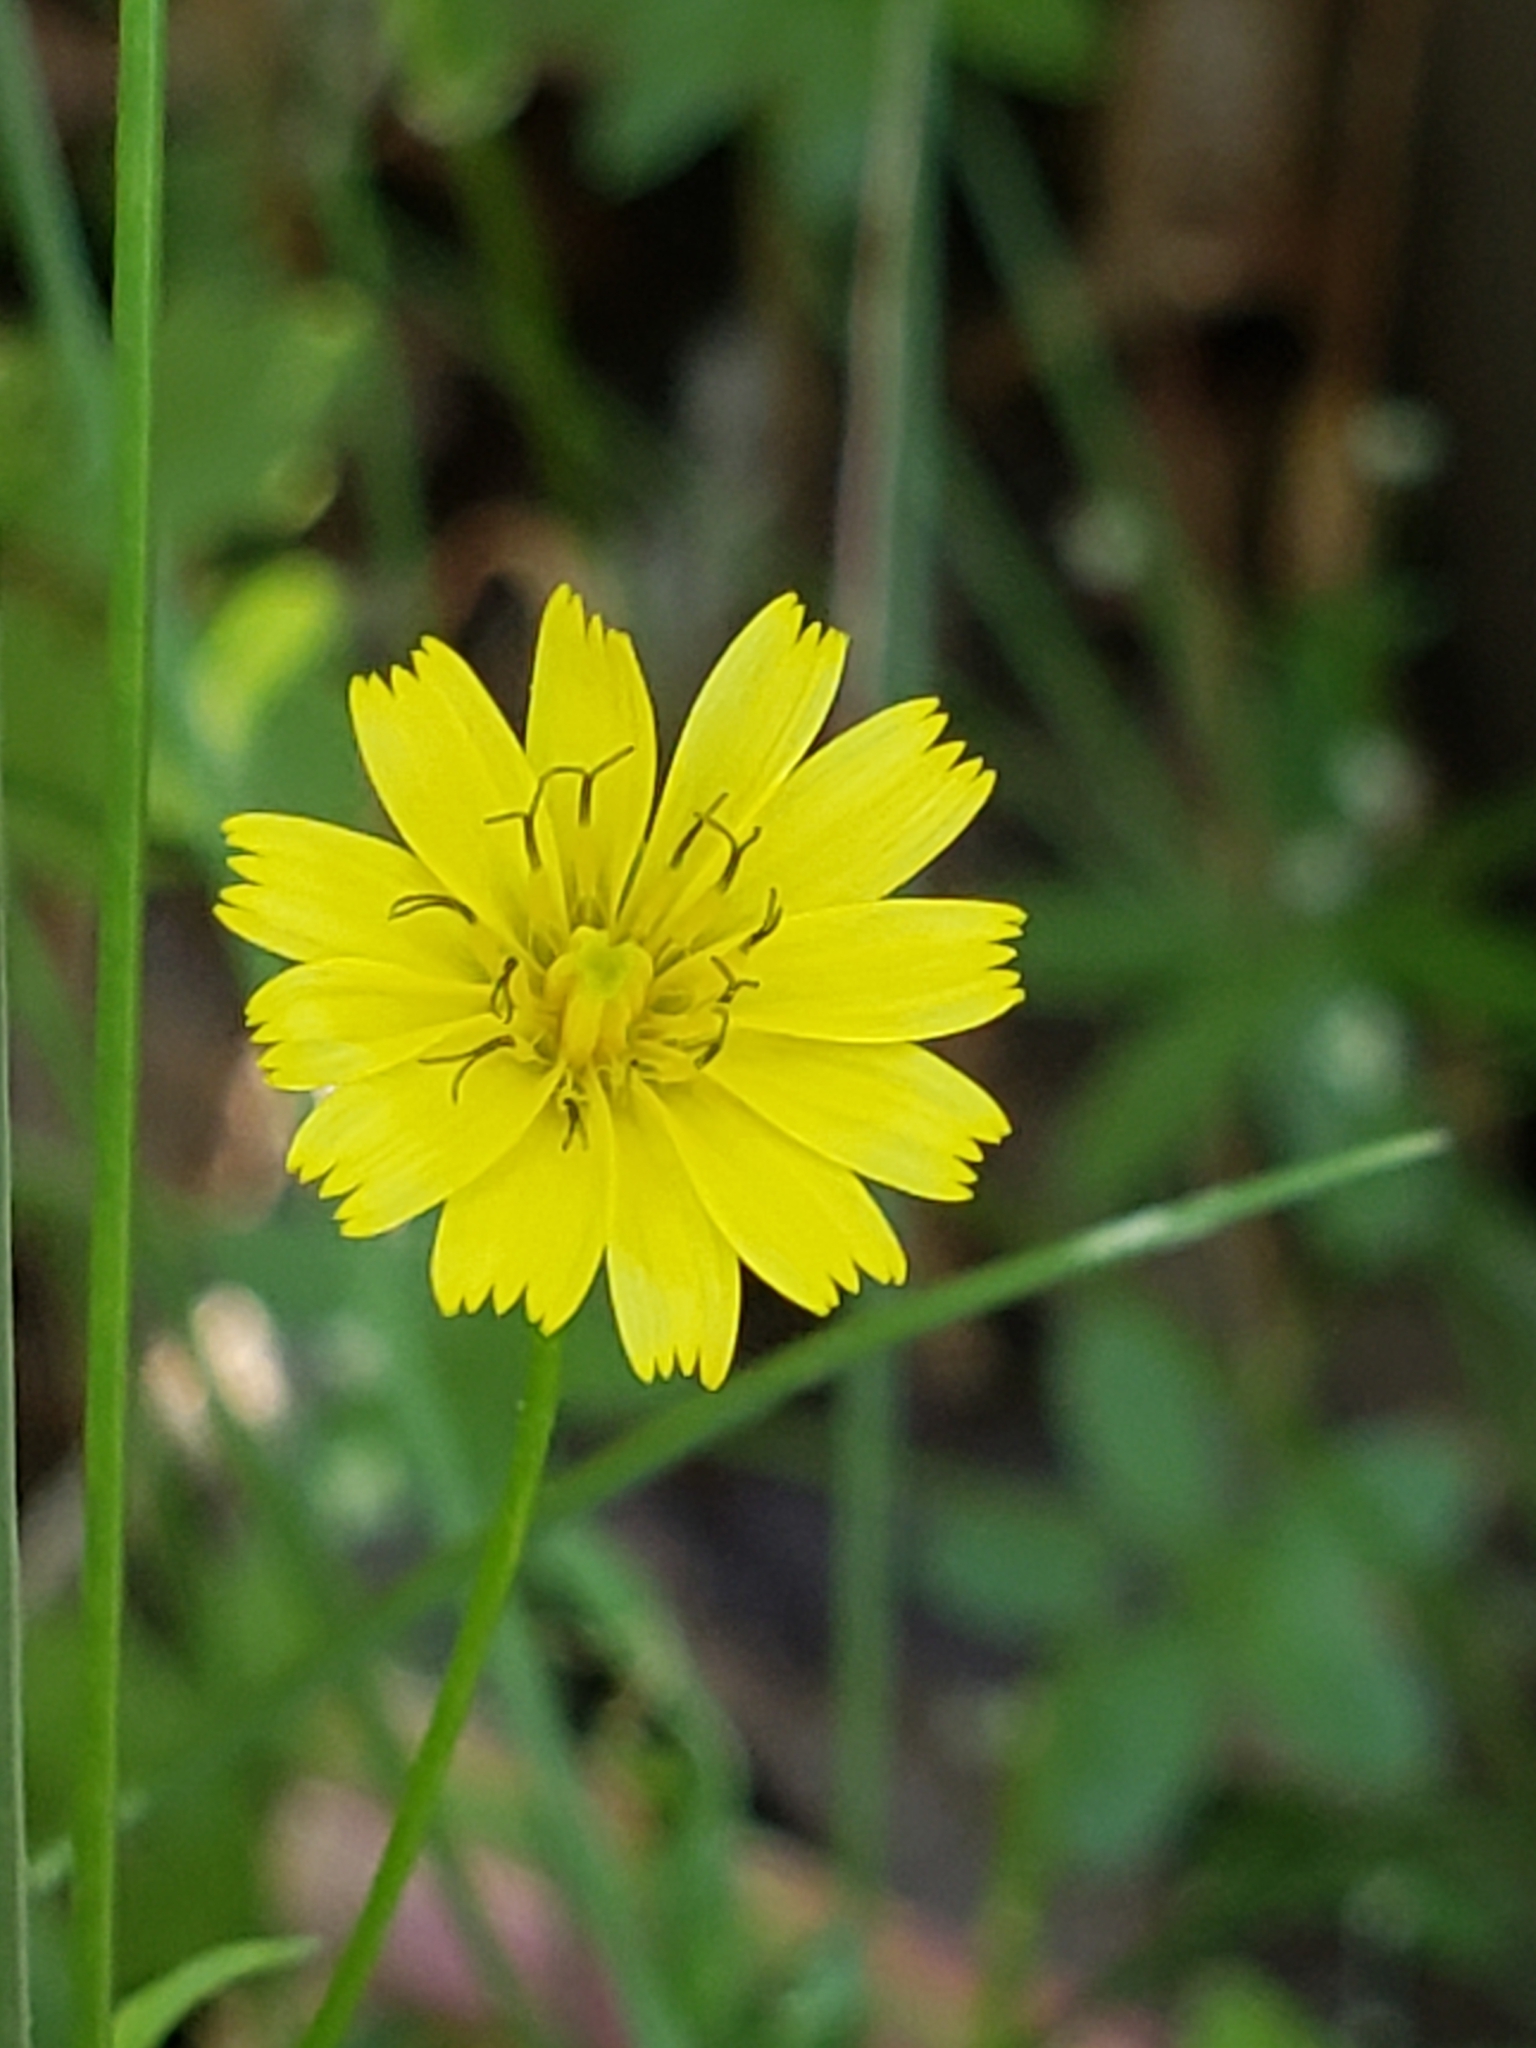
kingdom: Plantae
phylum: Tracheophyta
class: Magnoliopsida
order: Asterales
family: Asteraceae
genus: Lapsana
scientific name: Lapsana communis
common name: Nipplewort
